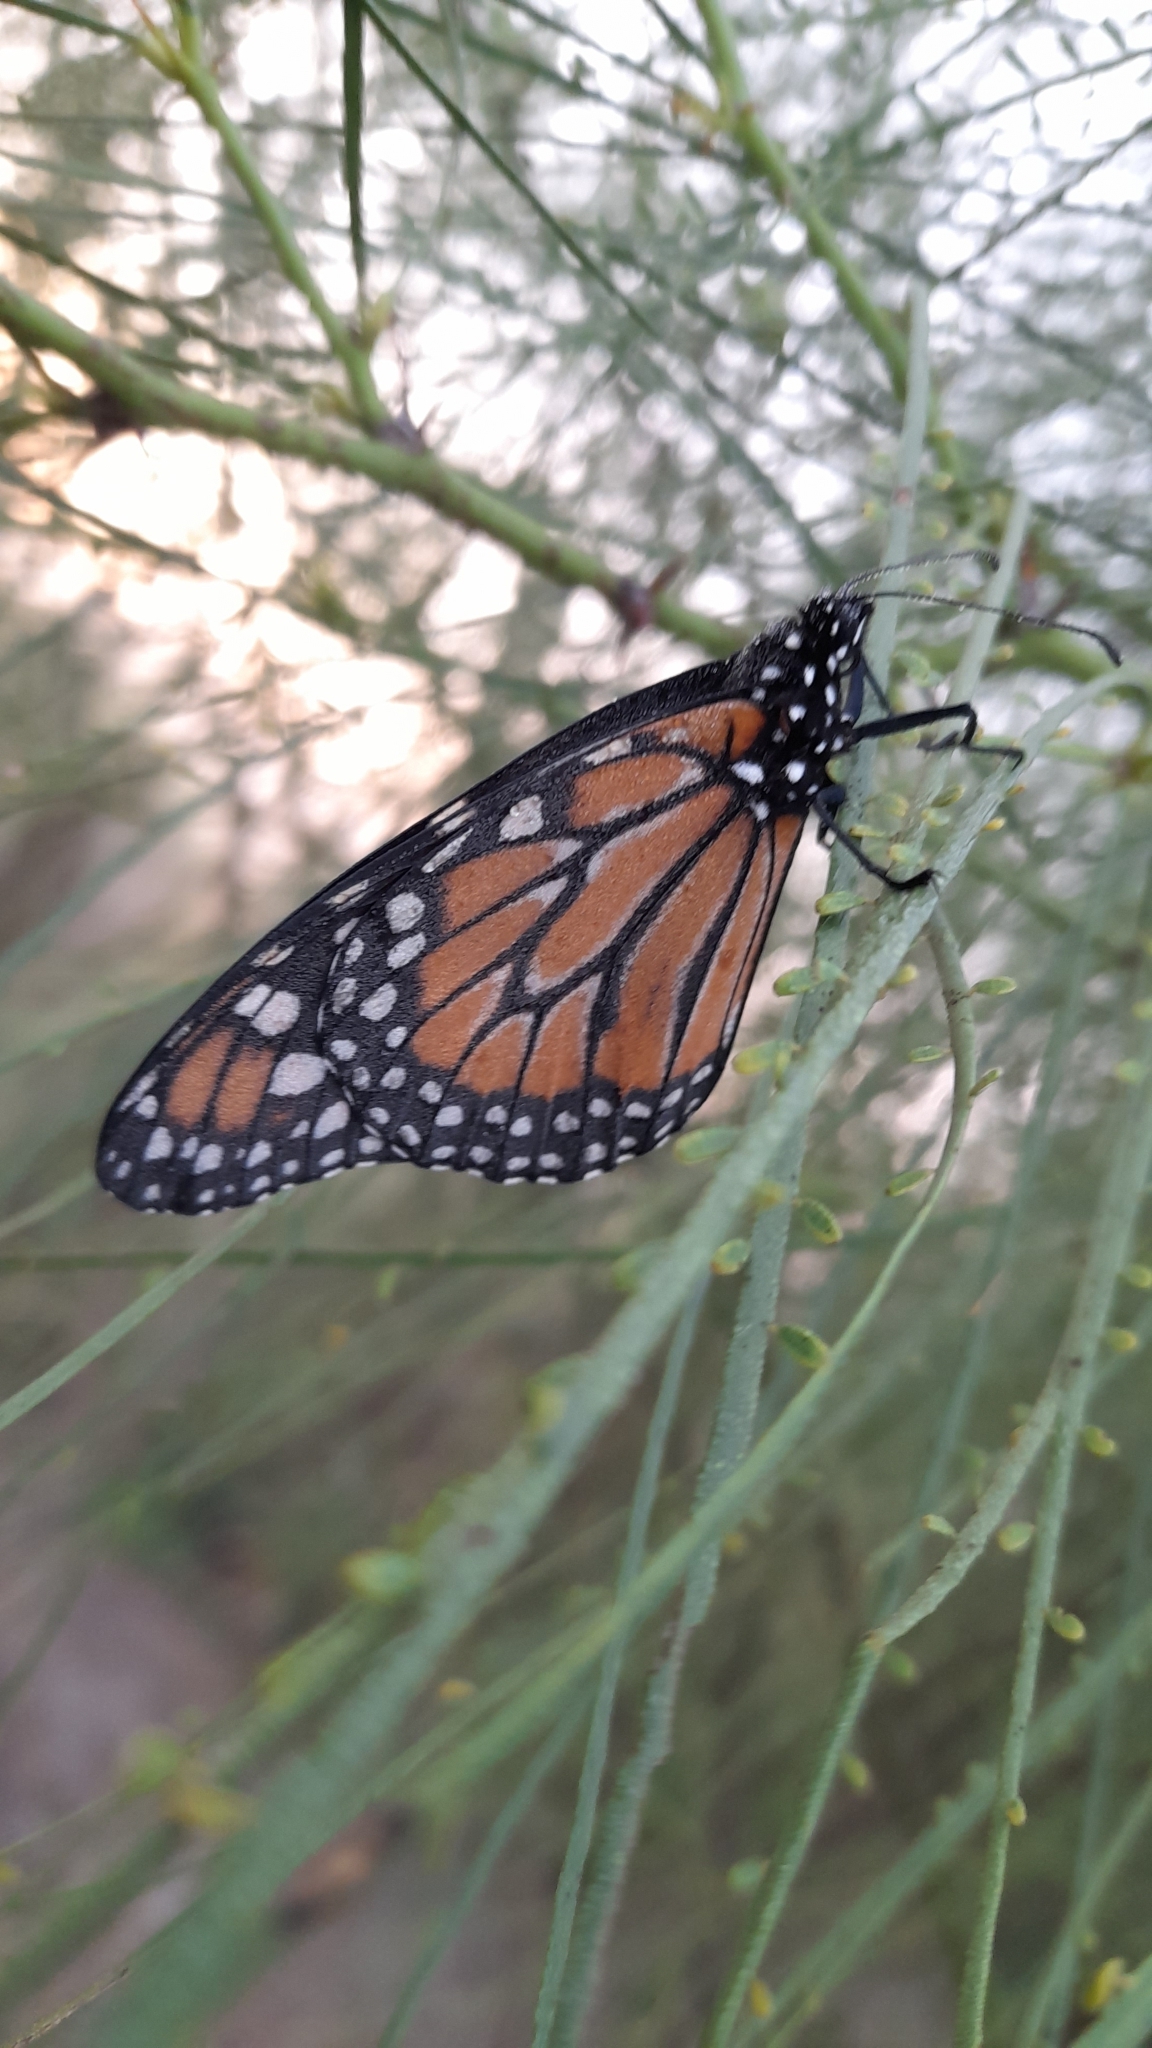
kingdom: Animalia
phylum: Arthropoda
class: Insecta
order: Lepidoptera
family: Nymphalidae
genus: Danaus
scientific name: Danaus erippus
